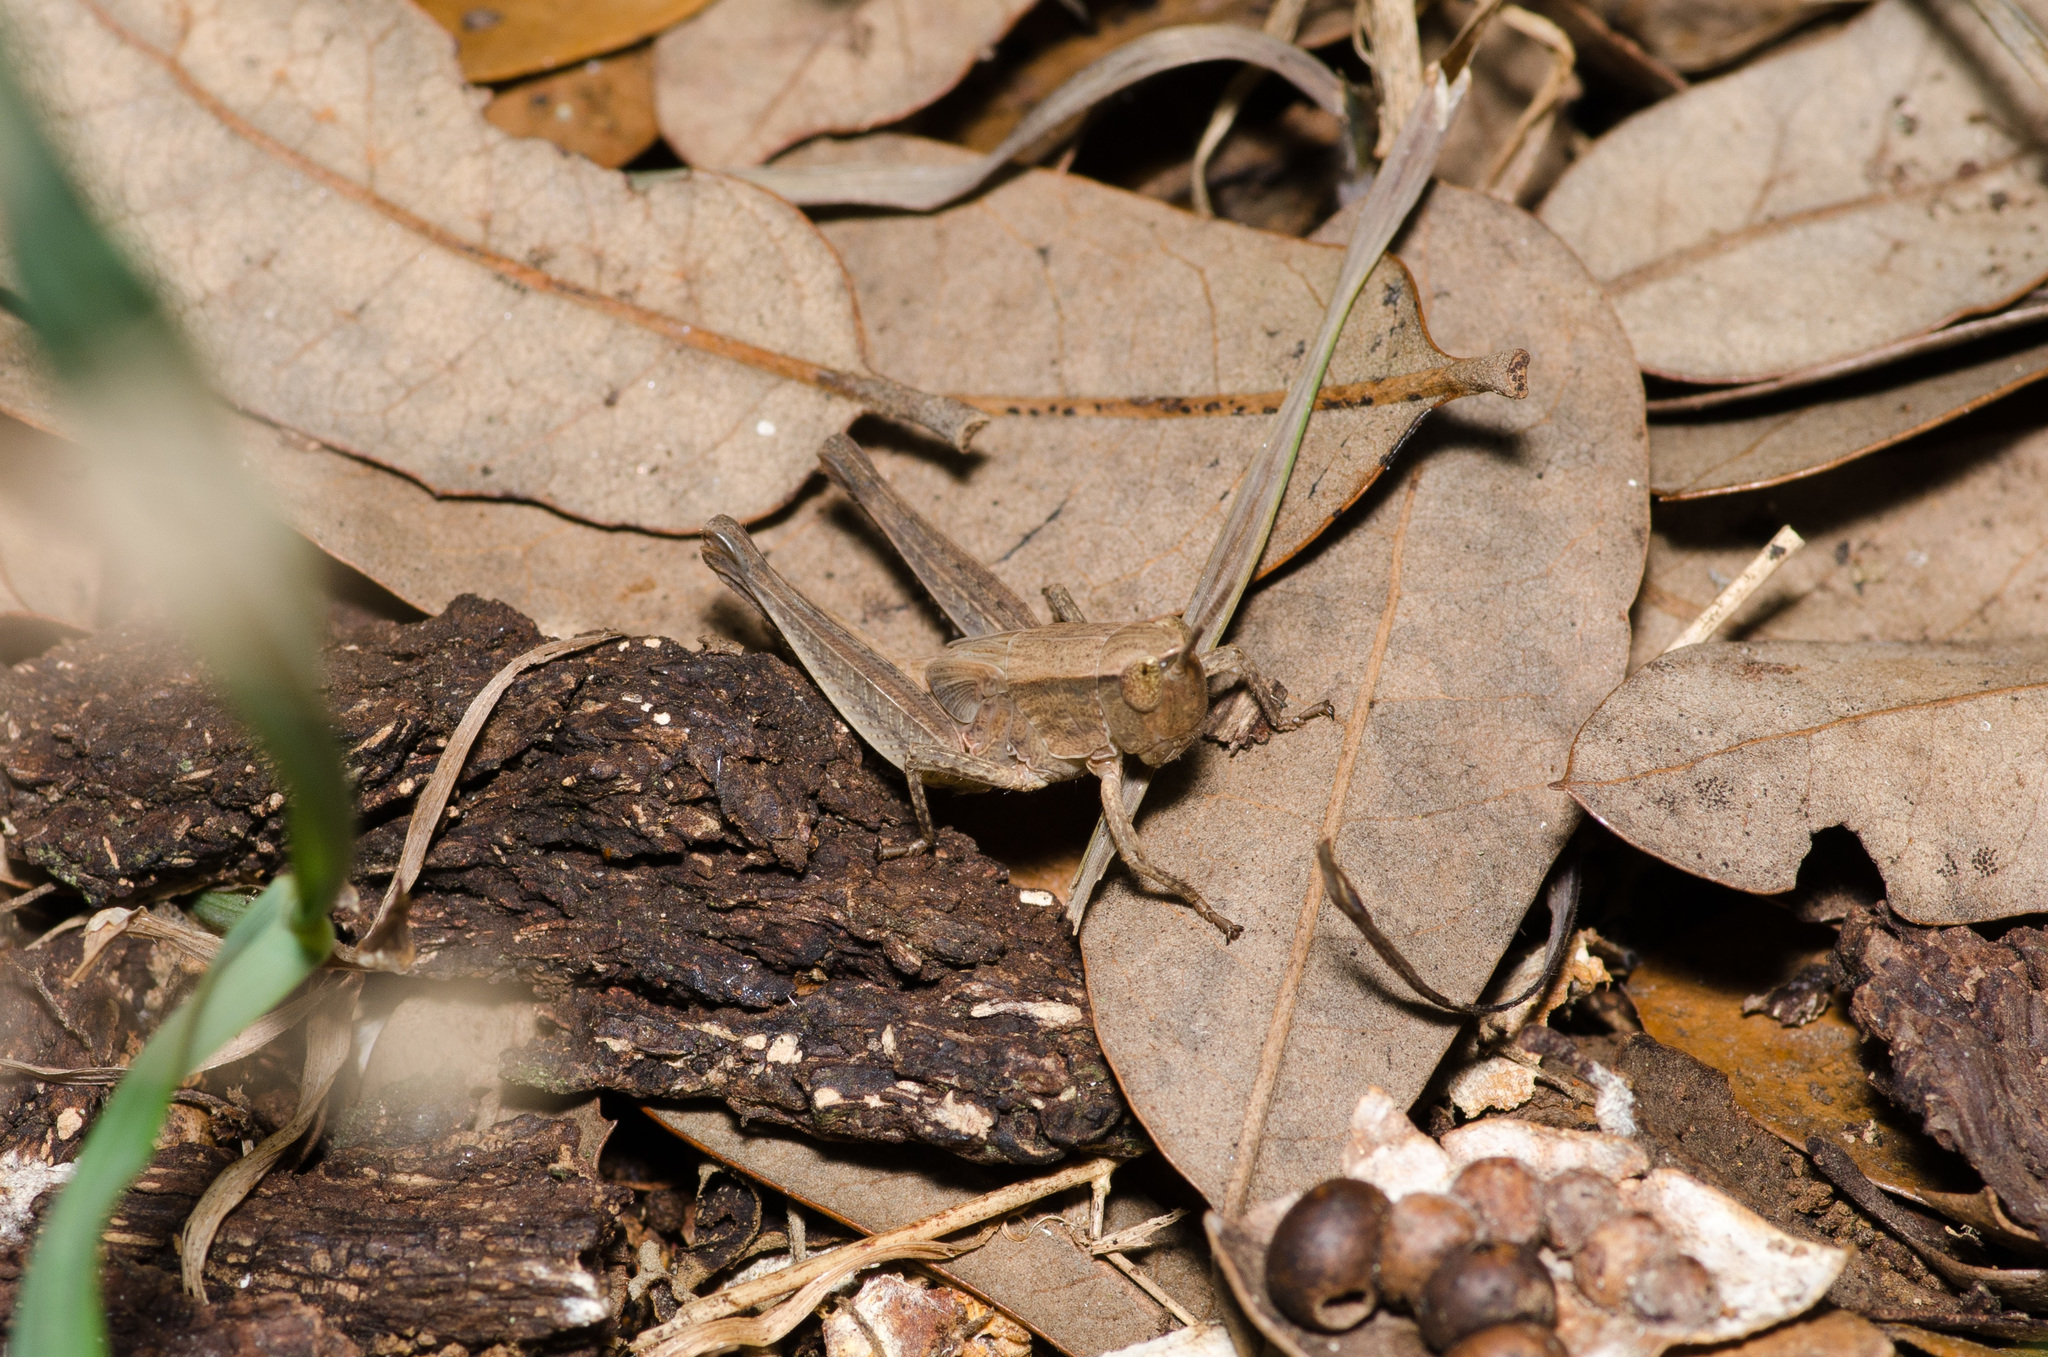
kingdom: Animalia
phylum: Arthropoda
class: Insecta
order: Orthoptera
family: Acrididae
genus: Dichromorpha
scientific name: Dichromorpha viridis
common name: Short-winged green grasshopper
